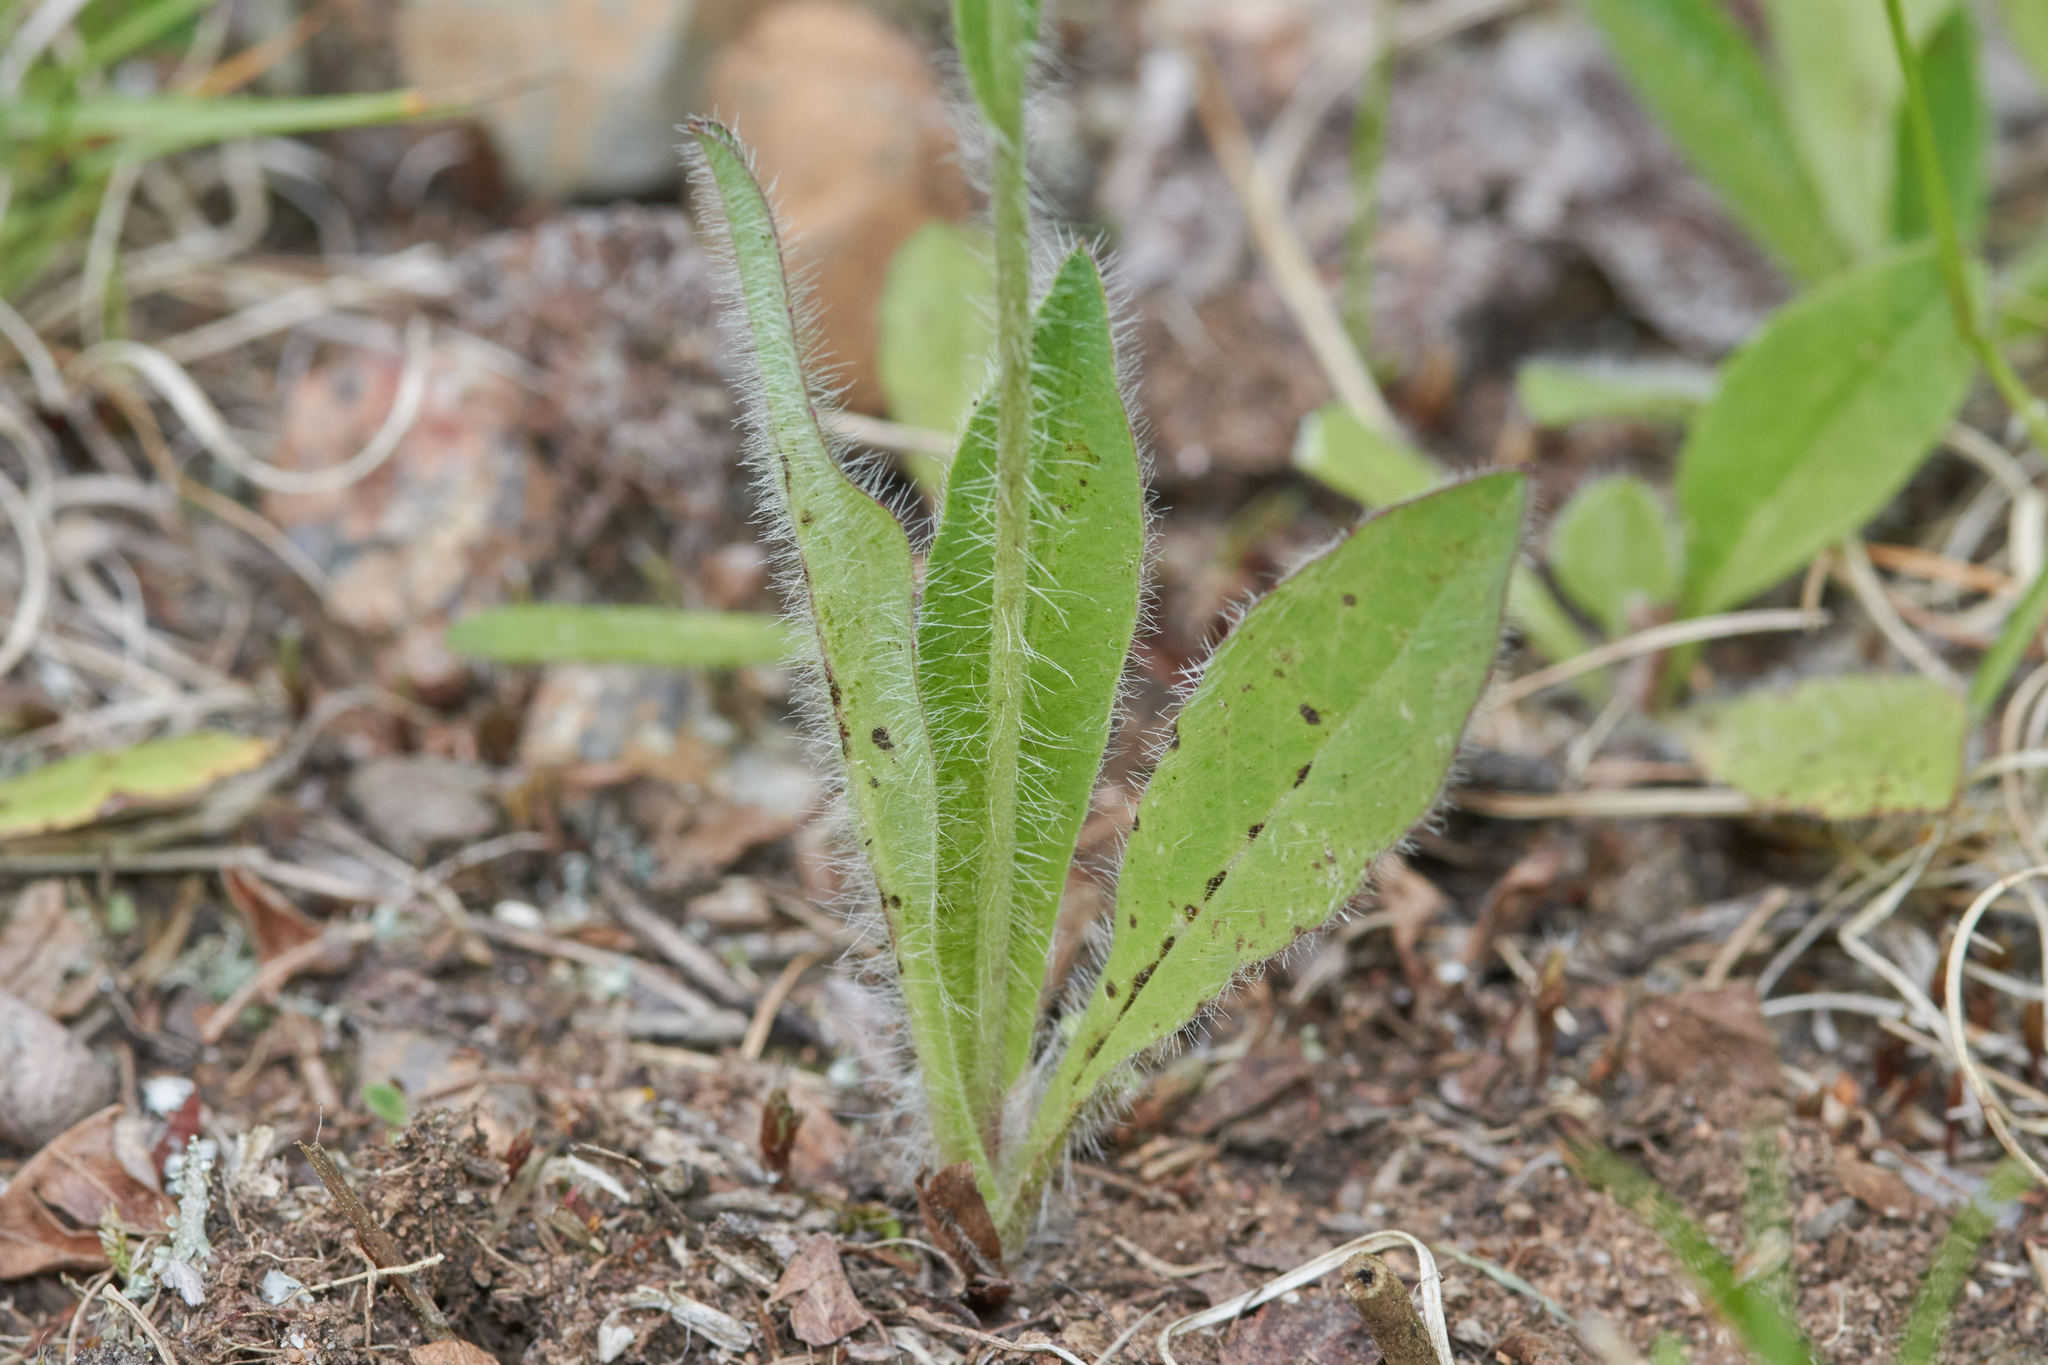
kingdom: Plantae
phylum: Tracheophyta
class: Magnoliopsida
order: Asterales
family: Asteraceae
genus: Pilosella
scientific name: Pilosella aurantiaca
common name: Fox-and-cubs
